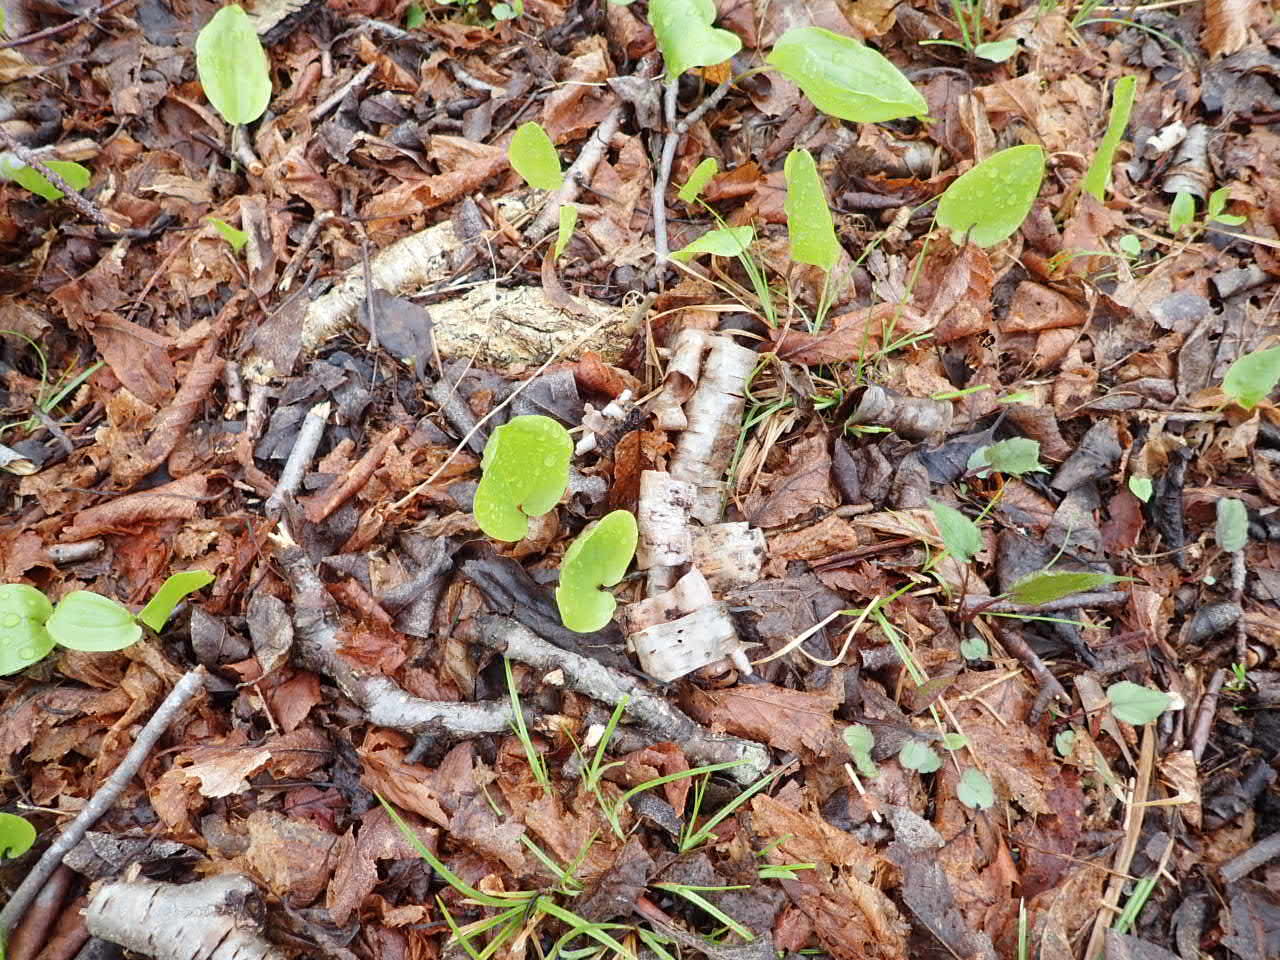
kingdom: Plantae
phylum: Tracheophyta
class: Liliopsida
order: Asparagales
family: Asparagaceae
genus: Maianthemum
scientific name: Maianthemum canadense
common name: False lily-of-the-valley
